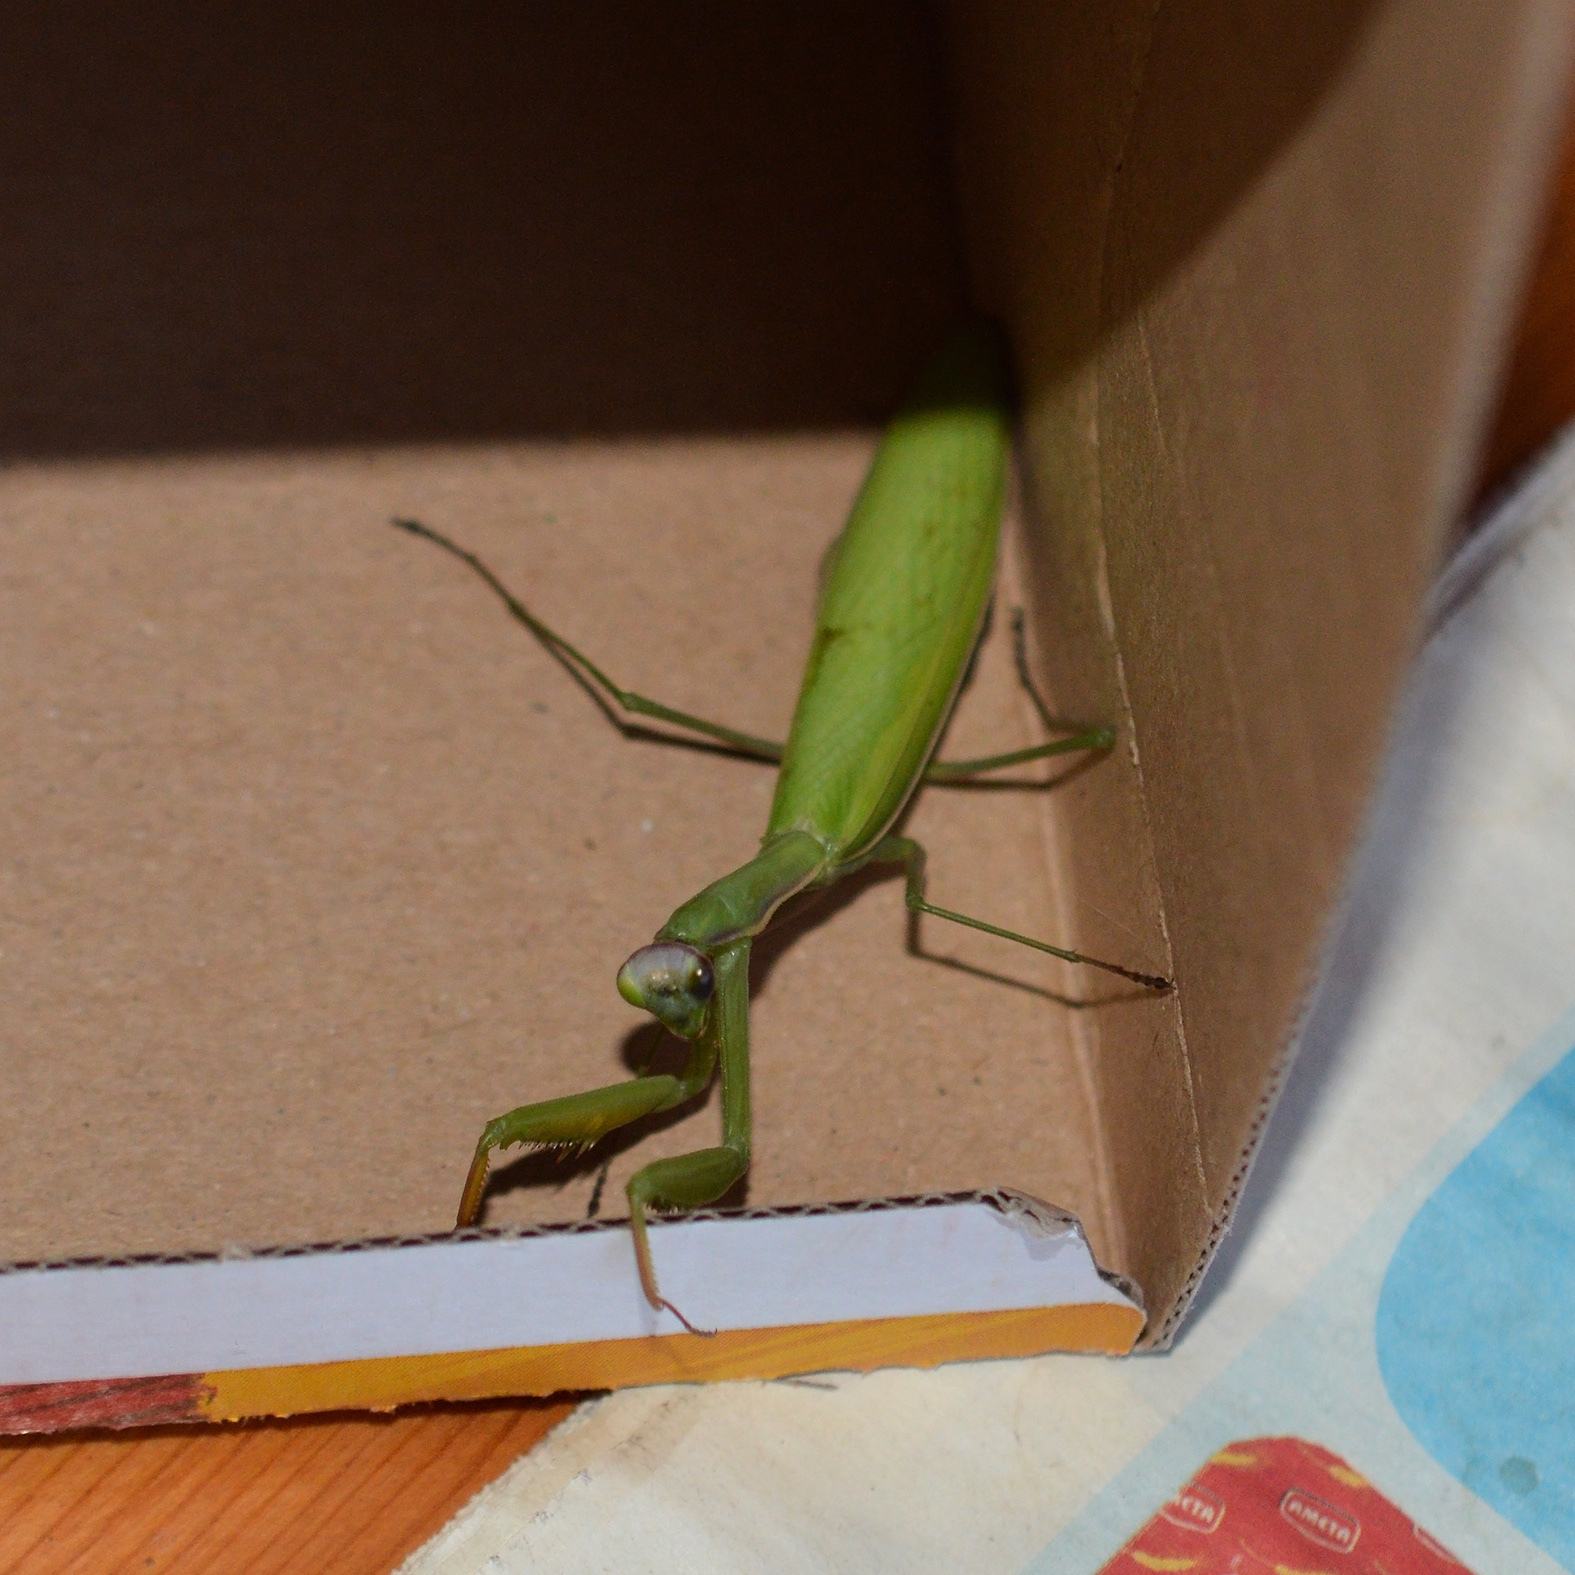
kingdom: Animalia
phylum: Arthropoda
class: Insecta
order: Mantodea
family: Mantidae
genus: Mantis
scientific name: Mantis religiosa
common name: Praying mantis
